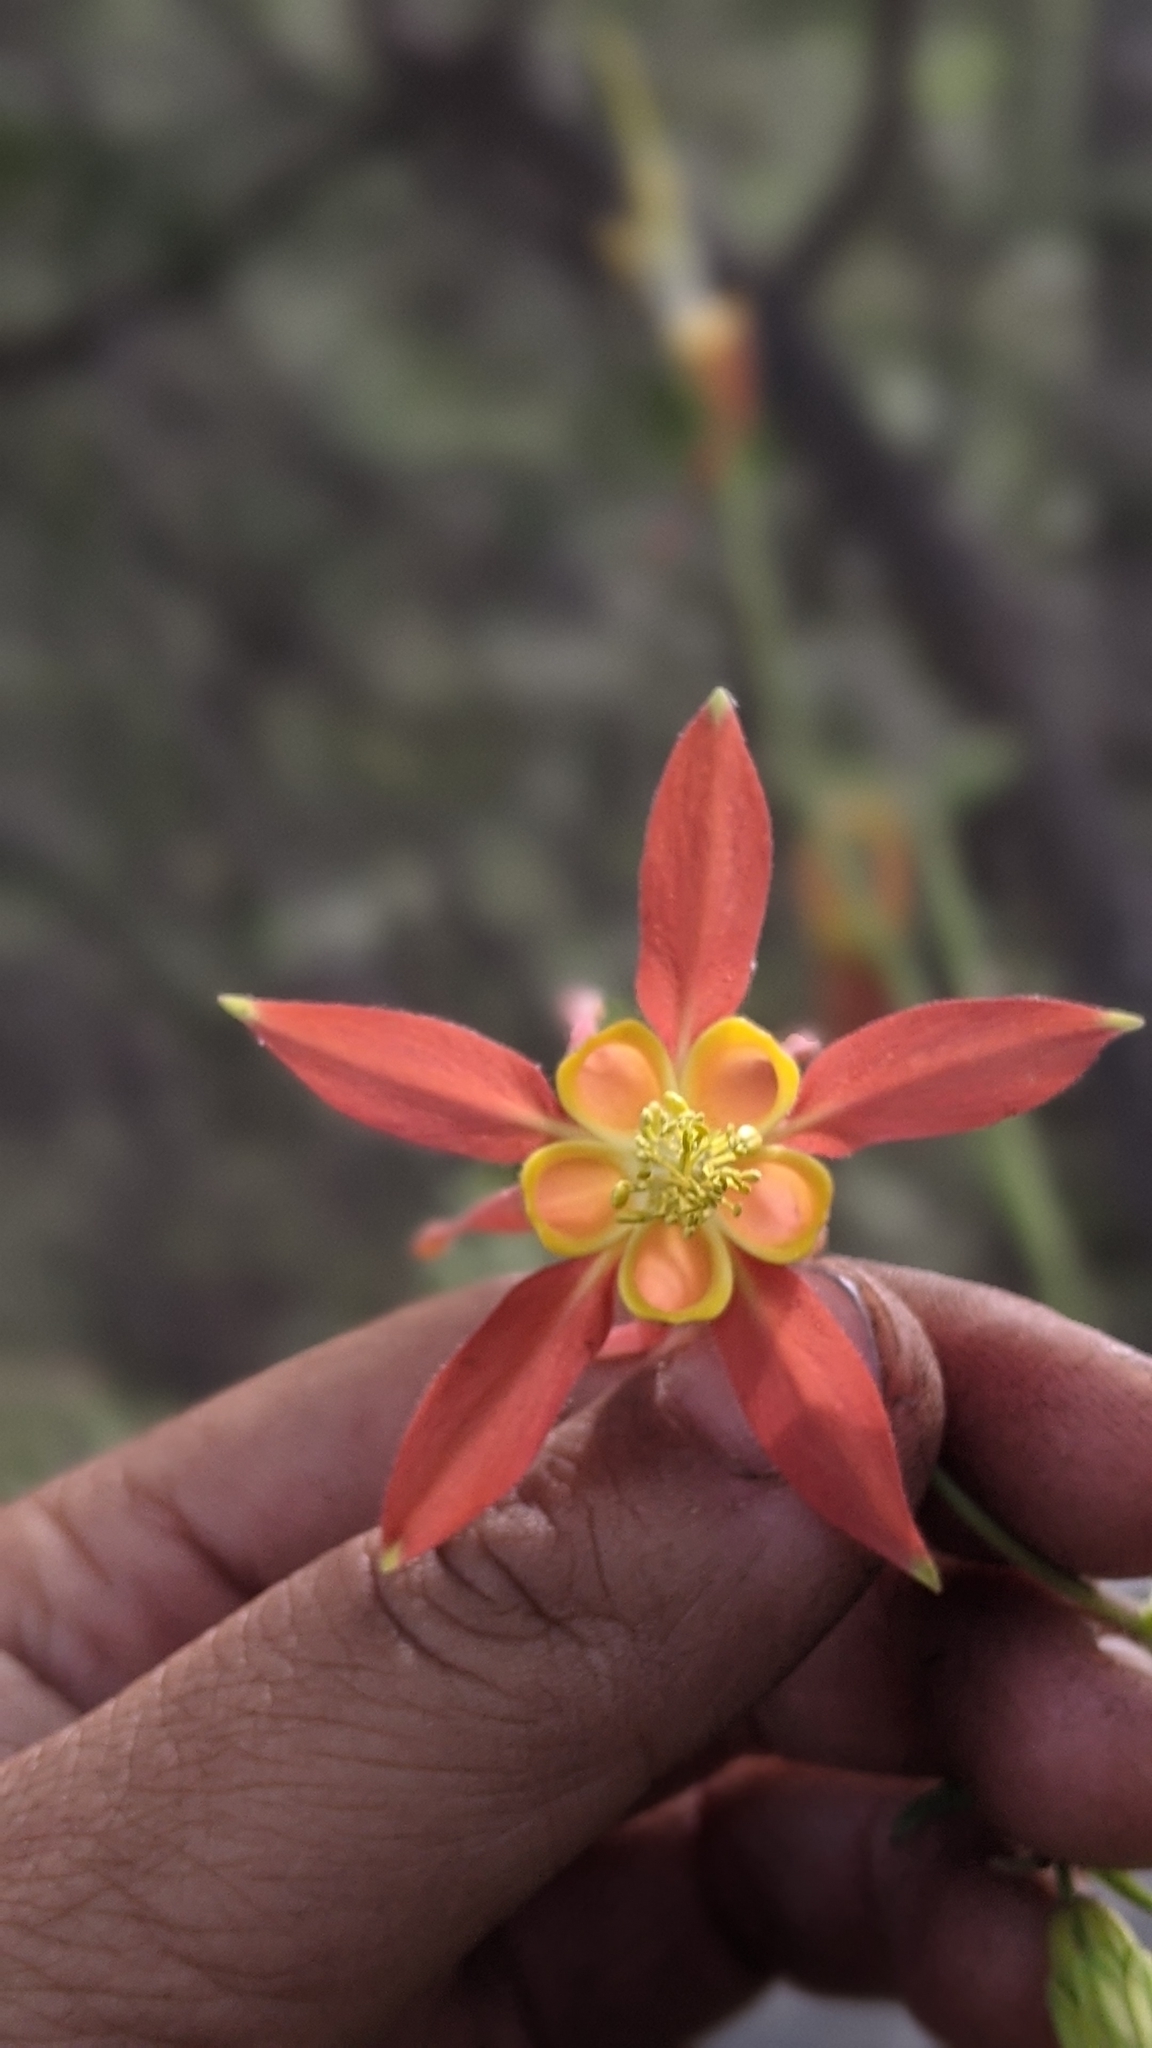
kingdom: Plantae
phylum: Tracheophyta
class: Magnoliopsida
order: Ranunculales
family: Ranunculaceae
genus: Aquilegia
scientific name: Aquilegia formosa
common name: Sitka columbine
